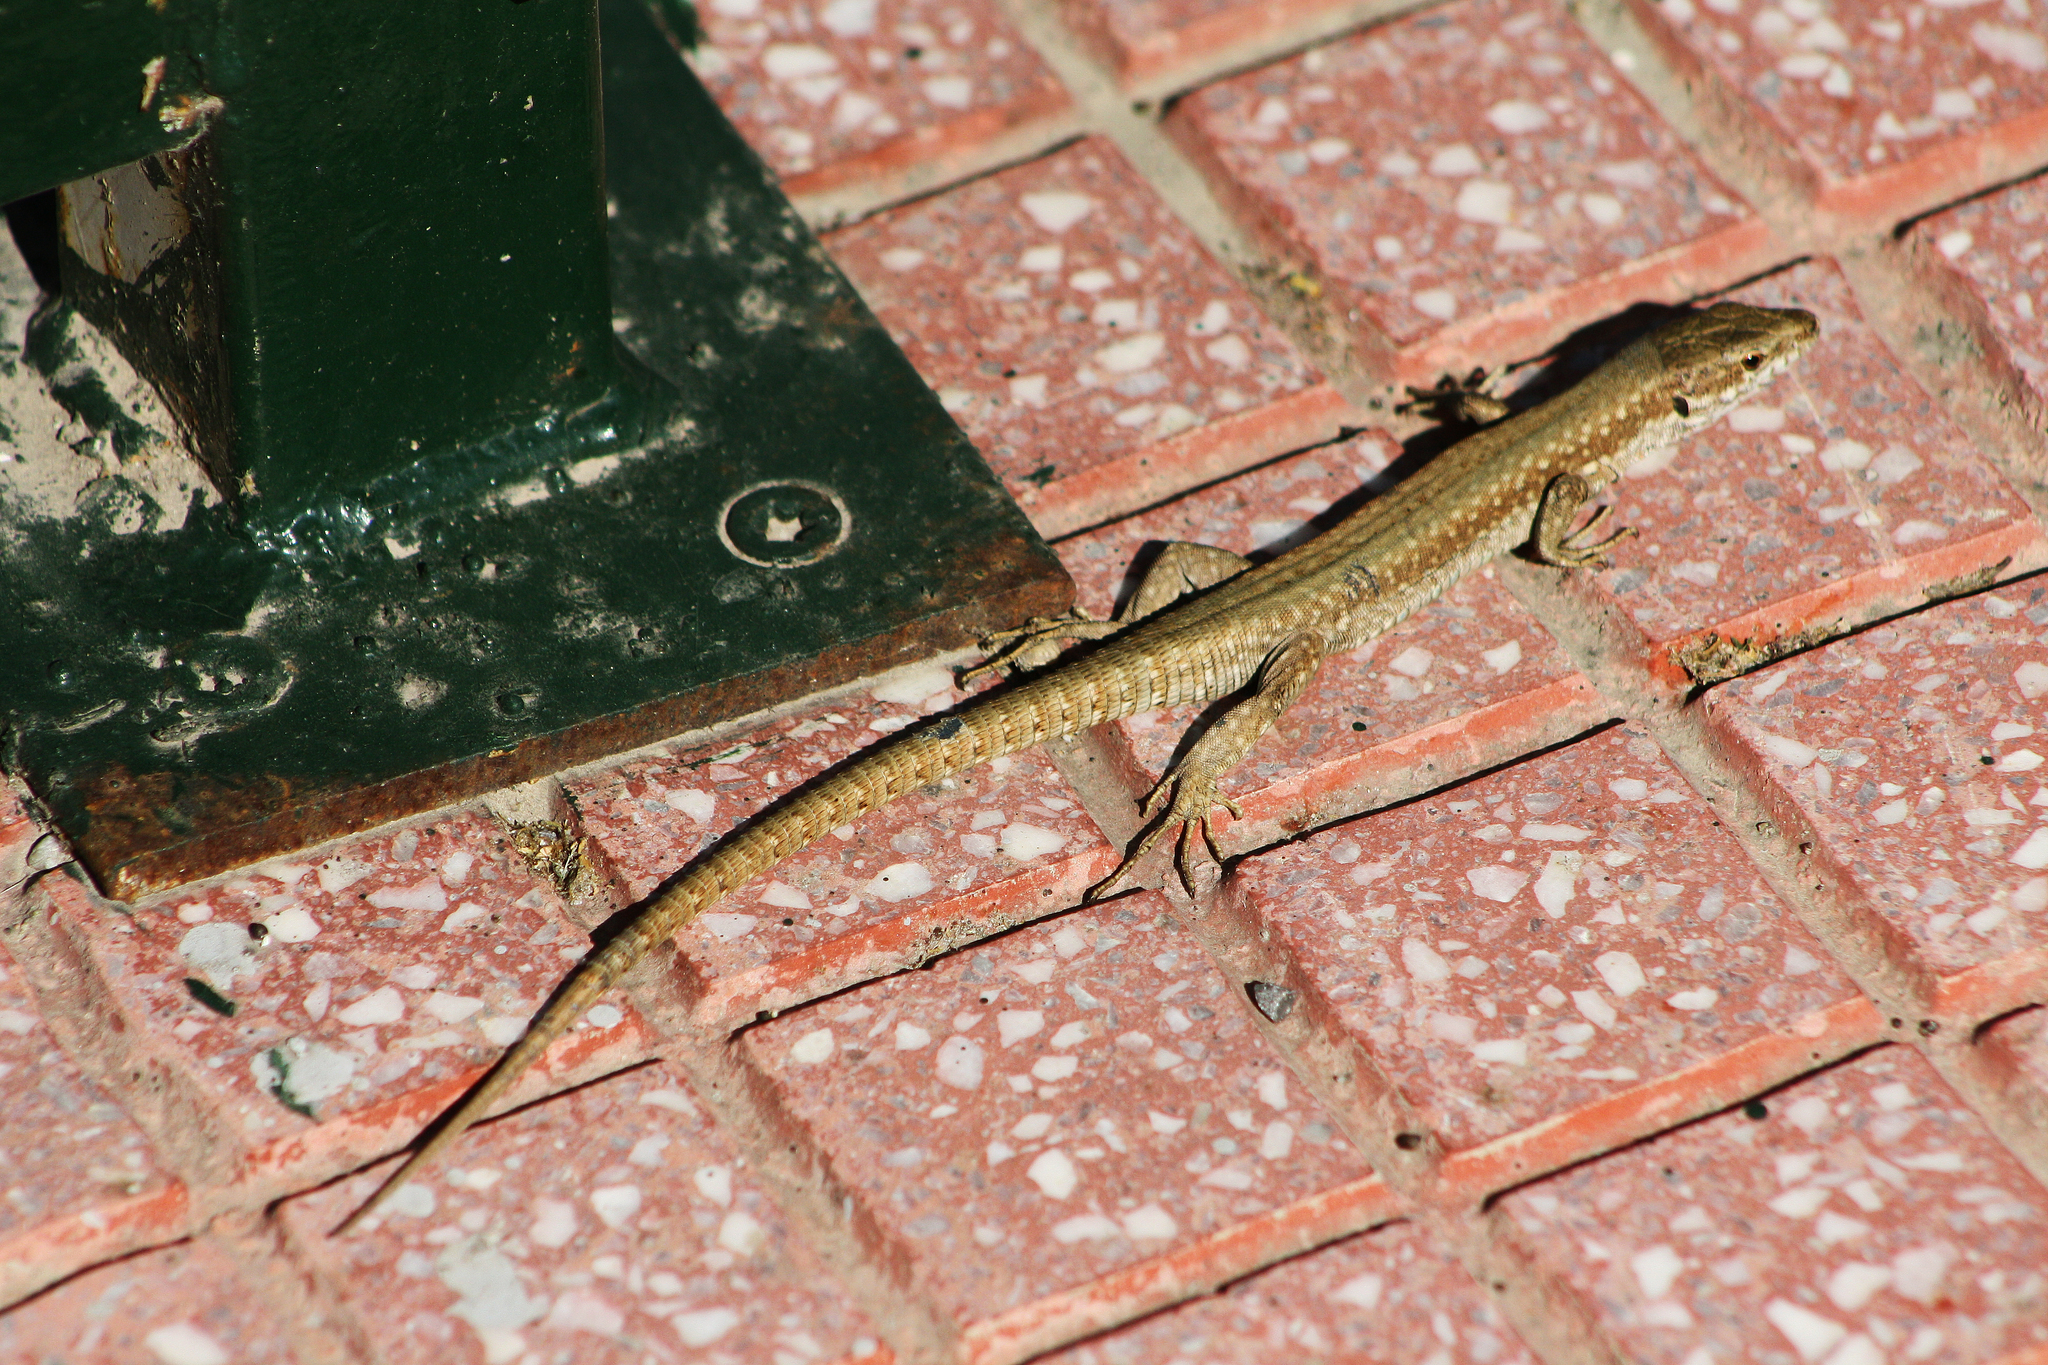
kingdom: Animalia
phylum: Chordata
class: Squamata
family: Lacertidae
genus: Podarcis
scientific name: Podarcis muralis
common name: Common wall lizard
